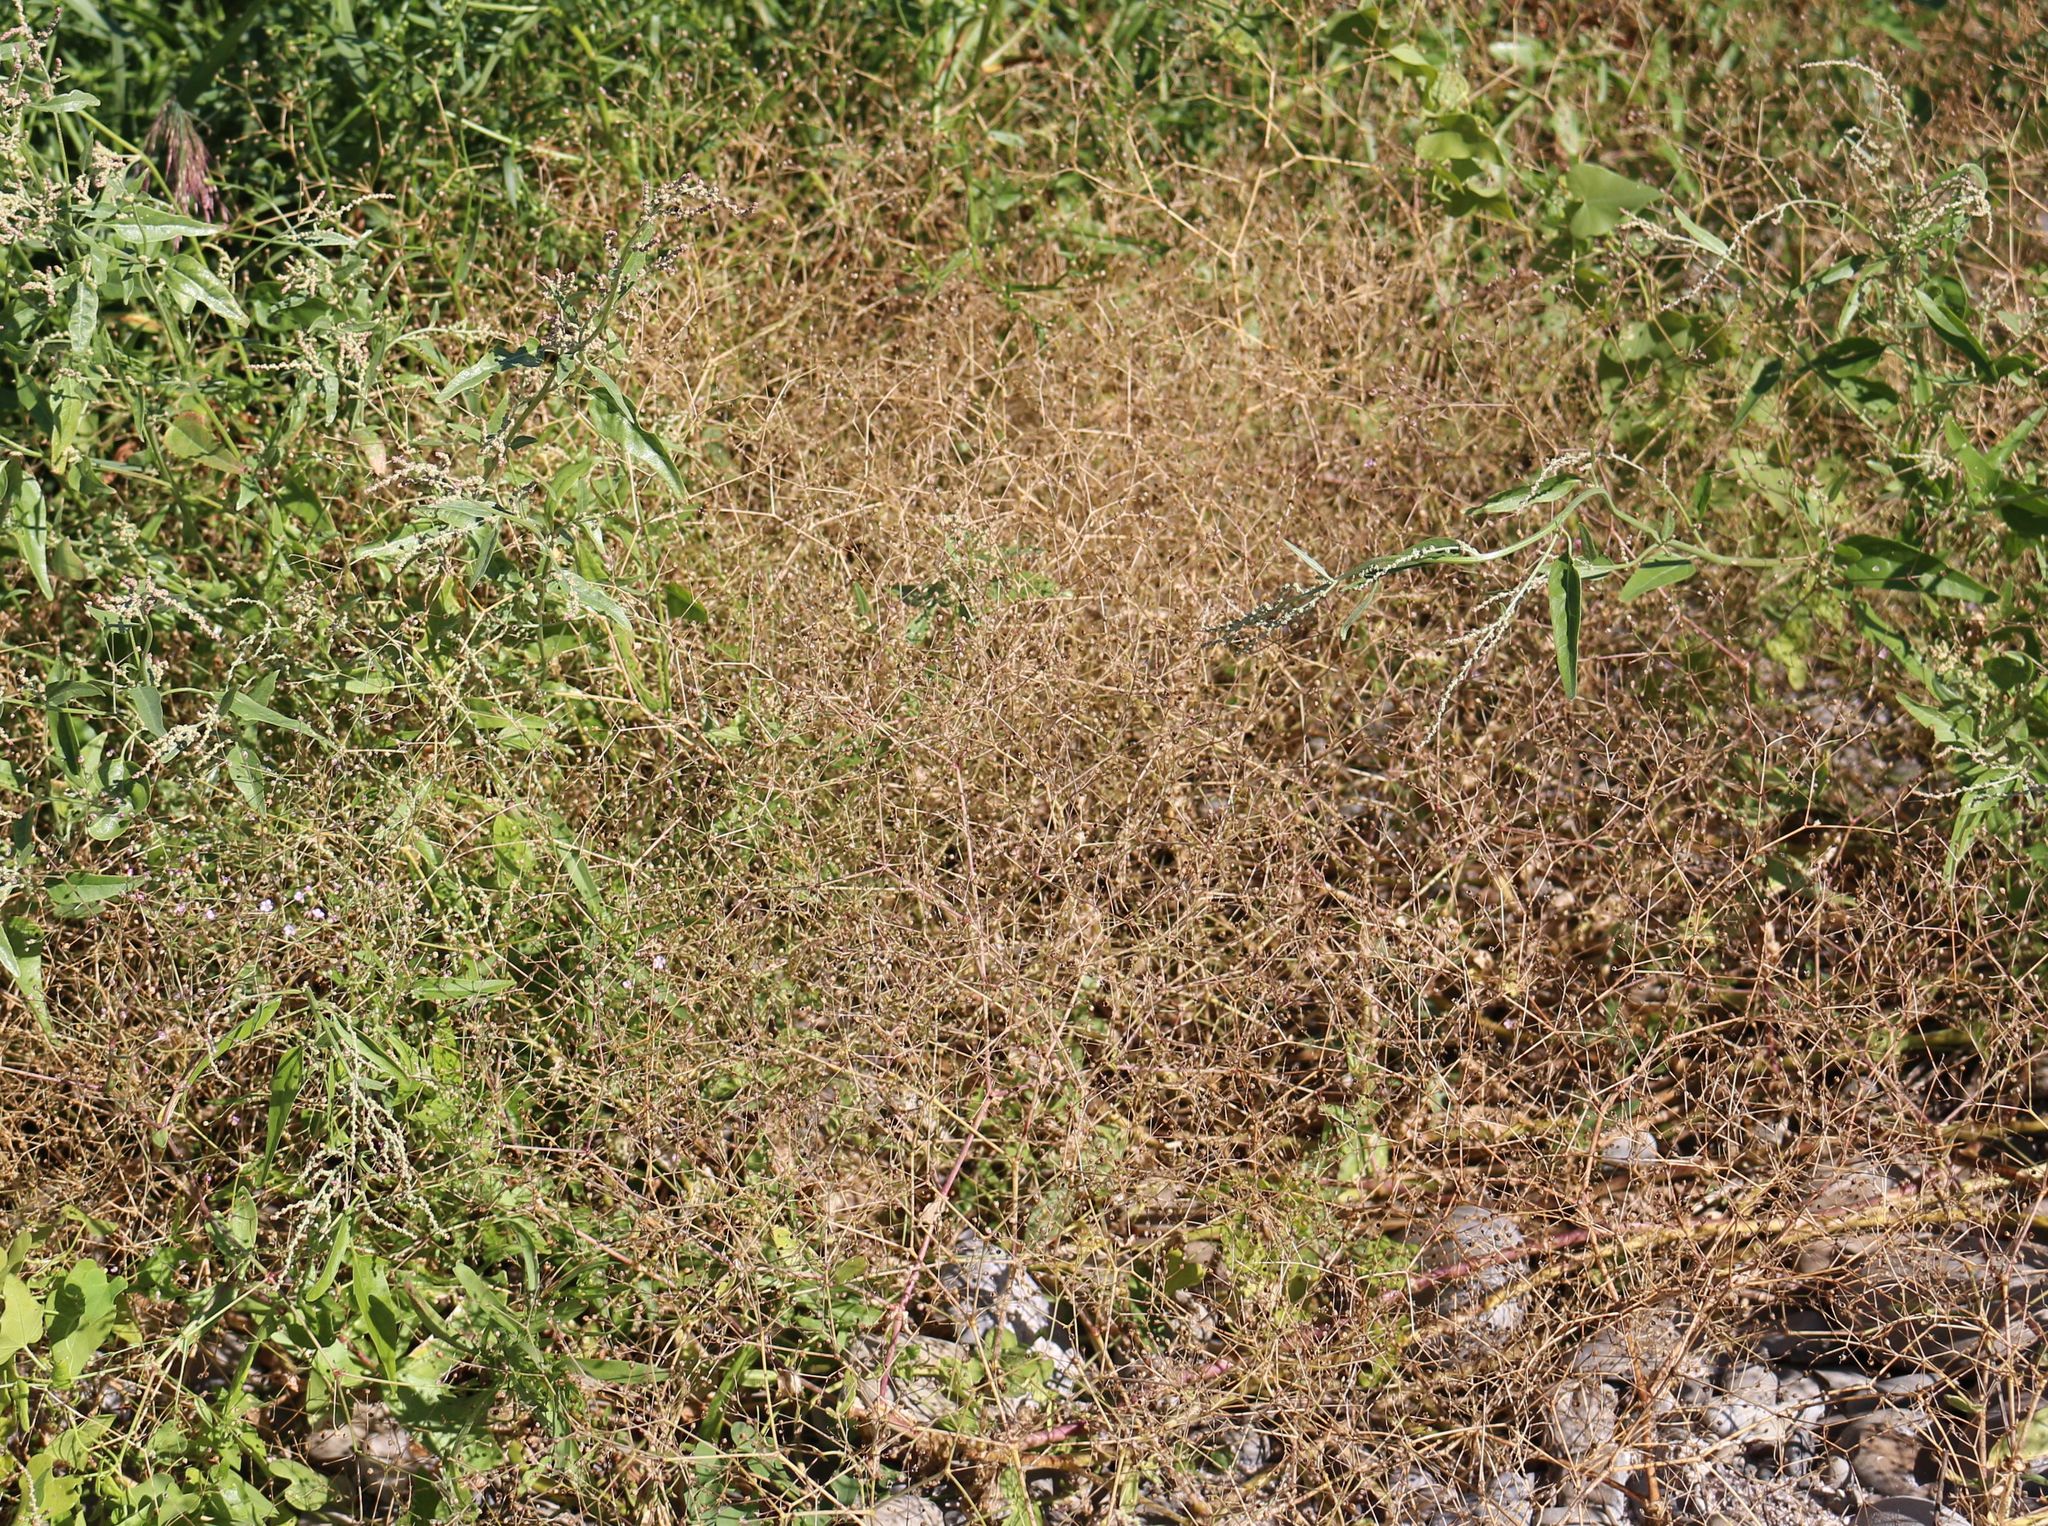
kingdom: Plantae
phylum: Tracheophyta
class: Magnoliopsida
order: Caryophyllales
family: Caryophyllaceae
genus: Gypsophila
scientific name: Gypsophila perfoliata
